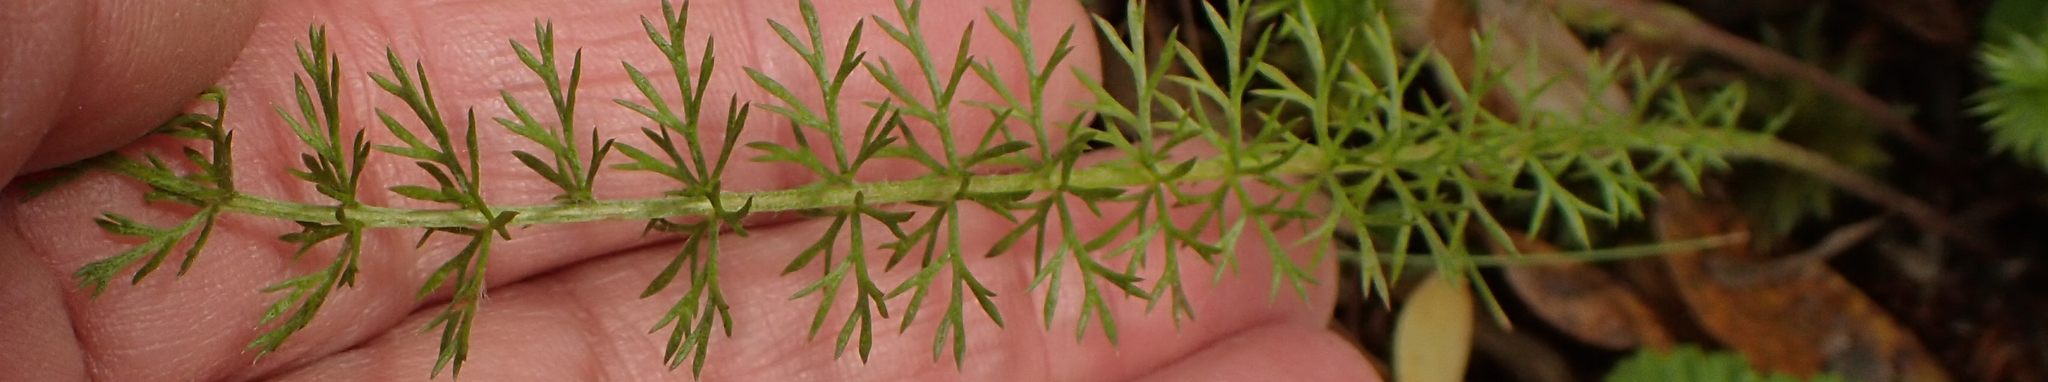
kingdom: Plantae
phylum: Tracheophyta
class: Magnoliopsida
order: Asterales
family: Asteraceae
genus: Achillea
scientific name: Achillea millefolium
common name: Yarrow
